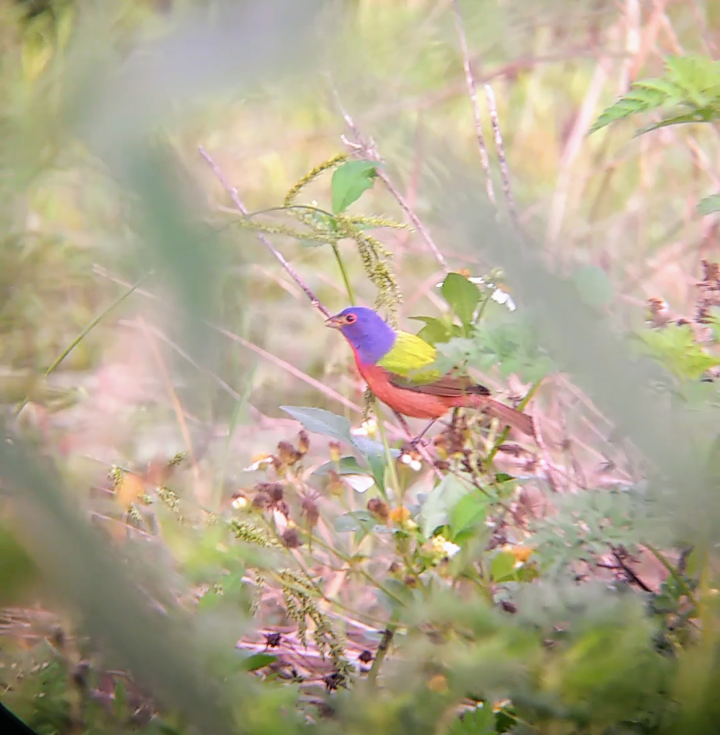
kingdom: Animalia
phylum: Chordata
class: Aves
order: Passeriformes
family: Cardinalidae
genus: Passerina
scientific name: Passerina ciris
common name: Painted bunting
